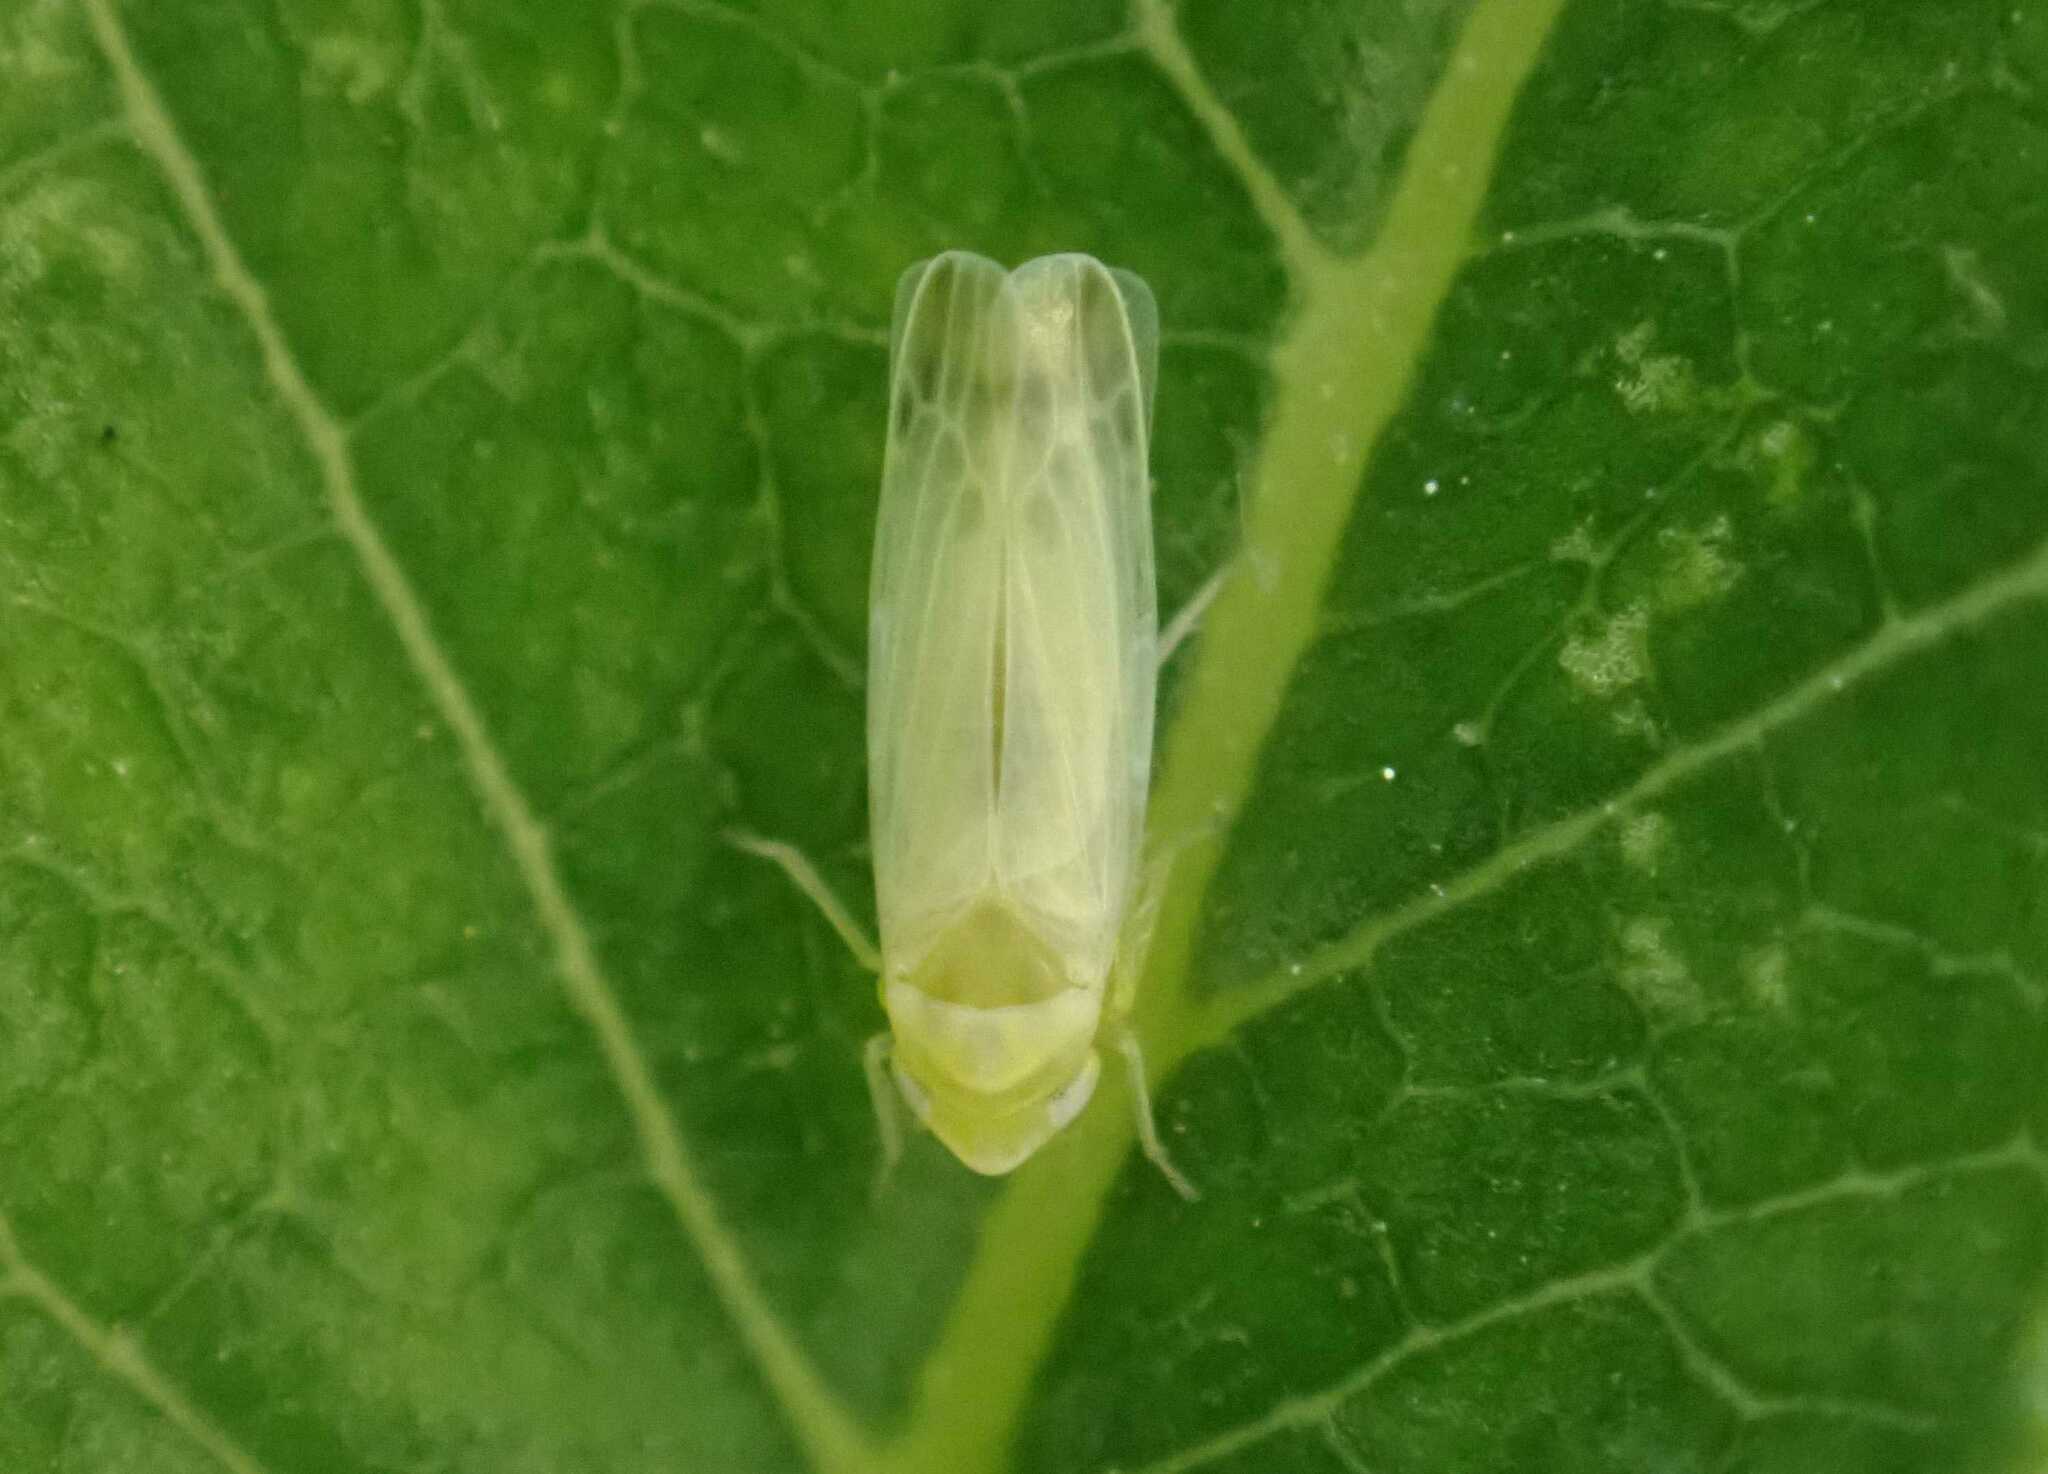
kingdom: Animalia
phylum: Arthropoda
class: Insecta
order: Hemiptera
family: Cicadellidae
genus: Tautoneura
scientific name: Tautoneura polymitusa
